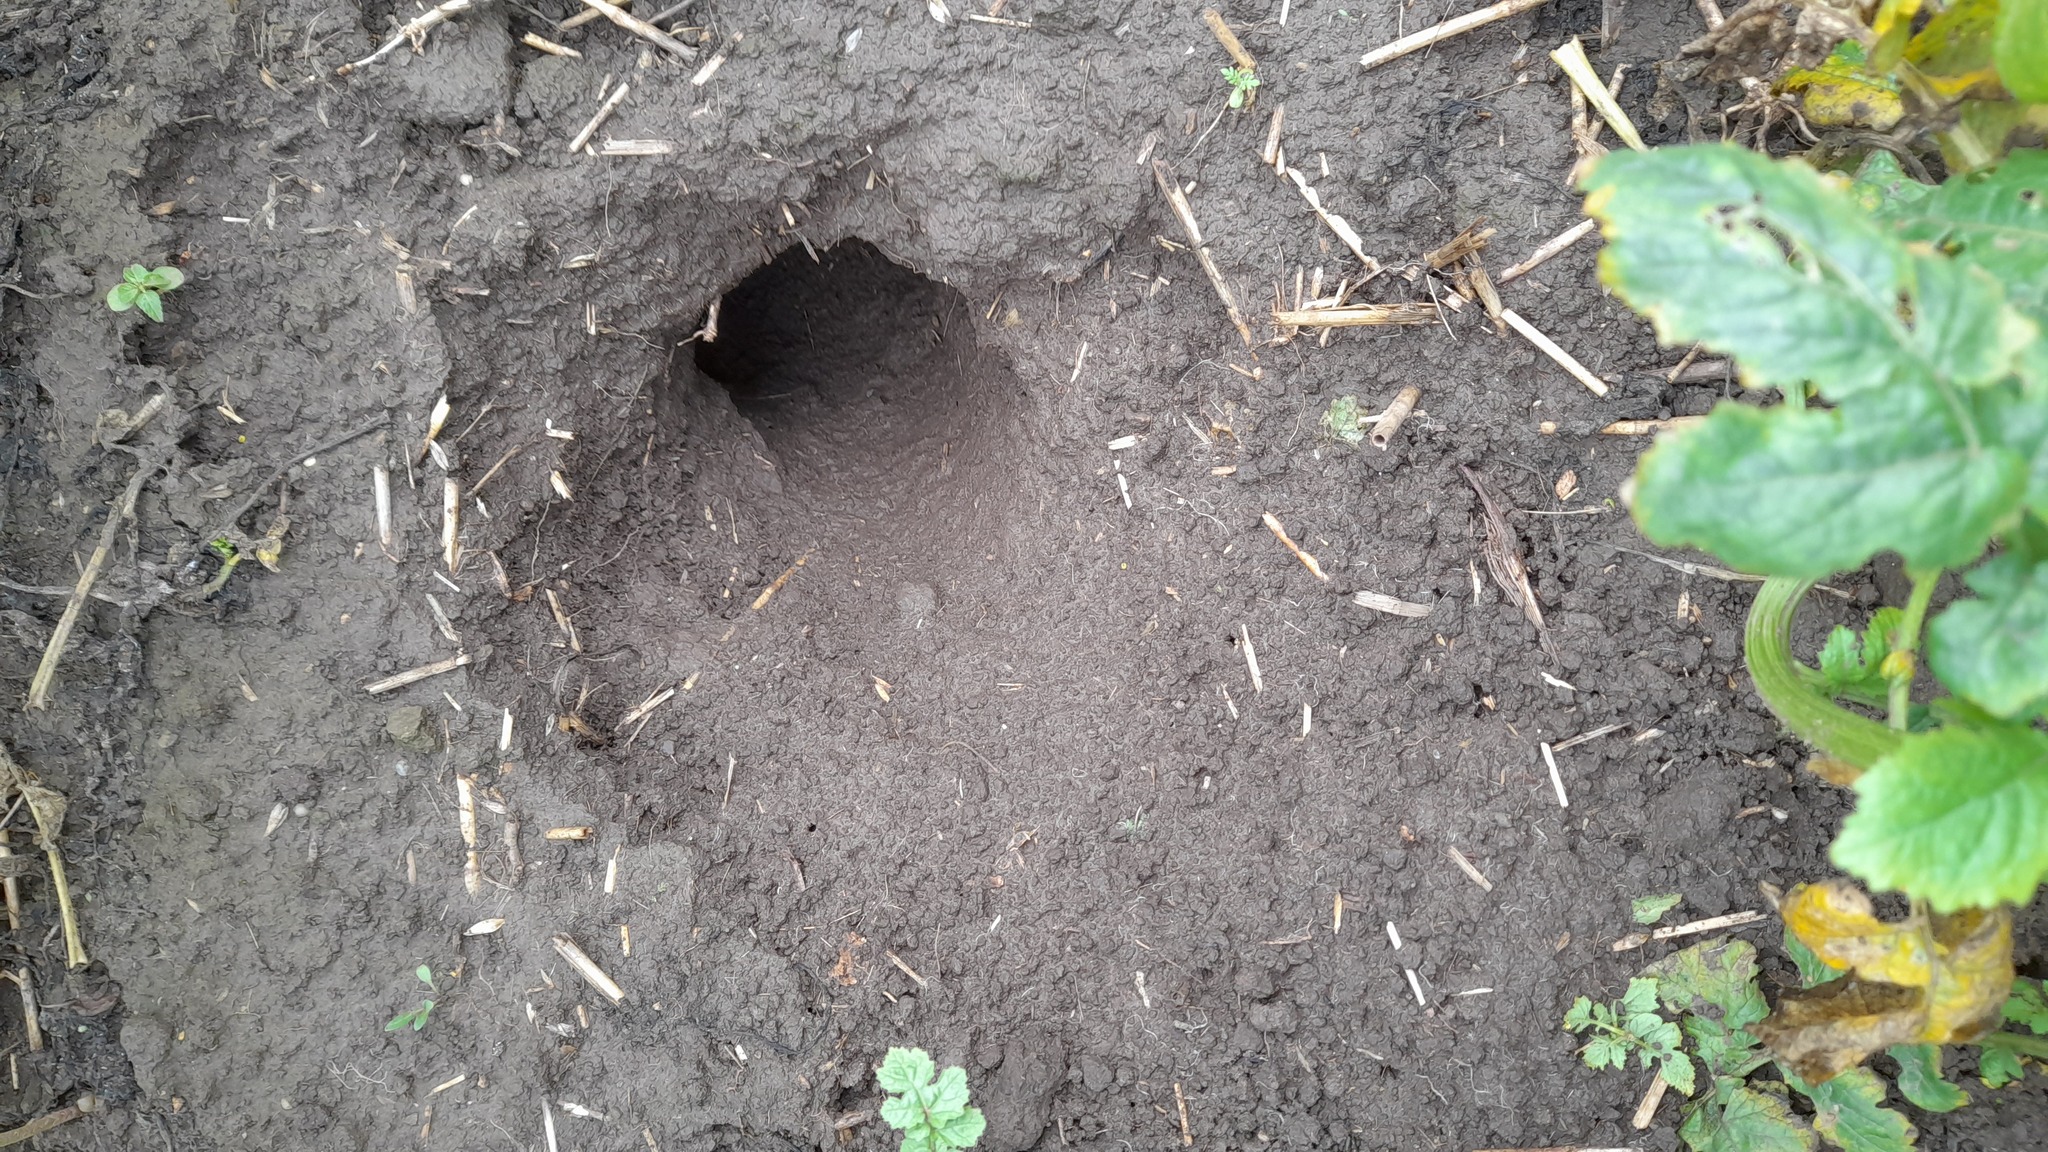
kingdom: Animalia
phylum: Chordata
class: Mammalia
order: Rodentia
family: Cricetidae
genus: Cricetus
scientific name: Cricetus cricetus
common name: Common hamster
